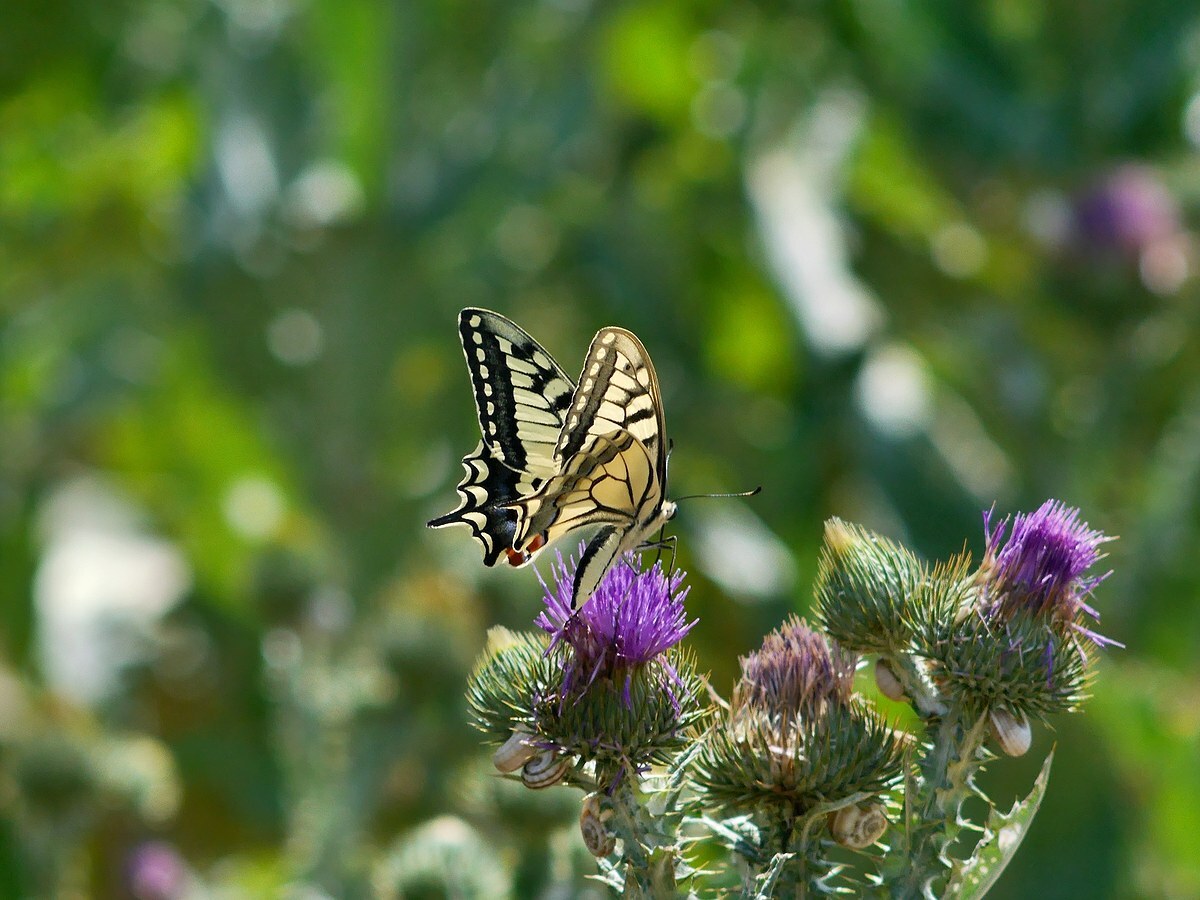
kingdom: Animalia
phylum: Arthropoda
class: Insecta
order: Lepidoptera
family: Papilionidae
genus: Papilio
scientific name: Papilio machaon
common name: Swallowtail
